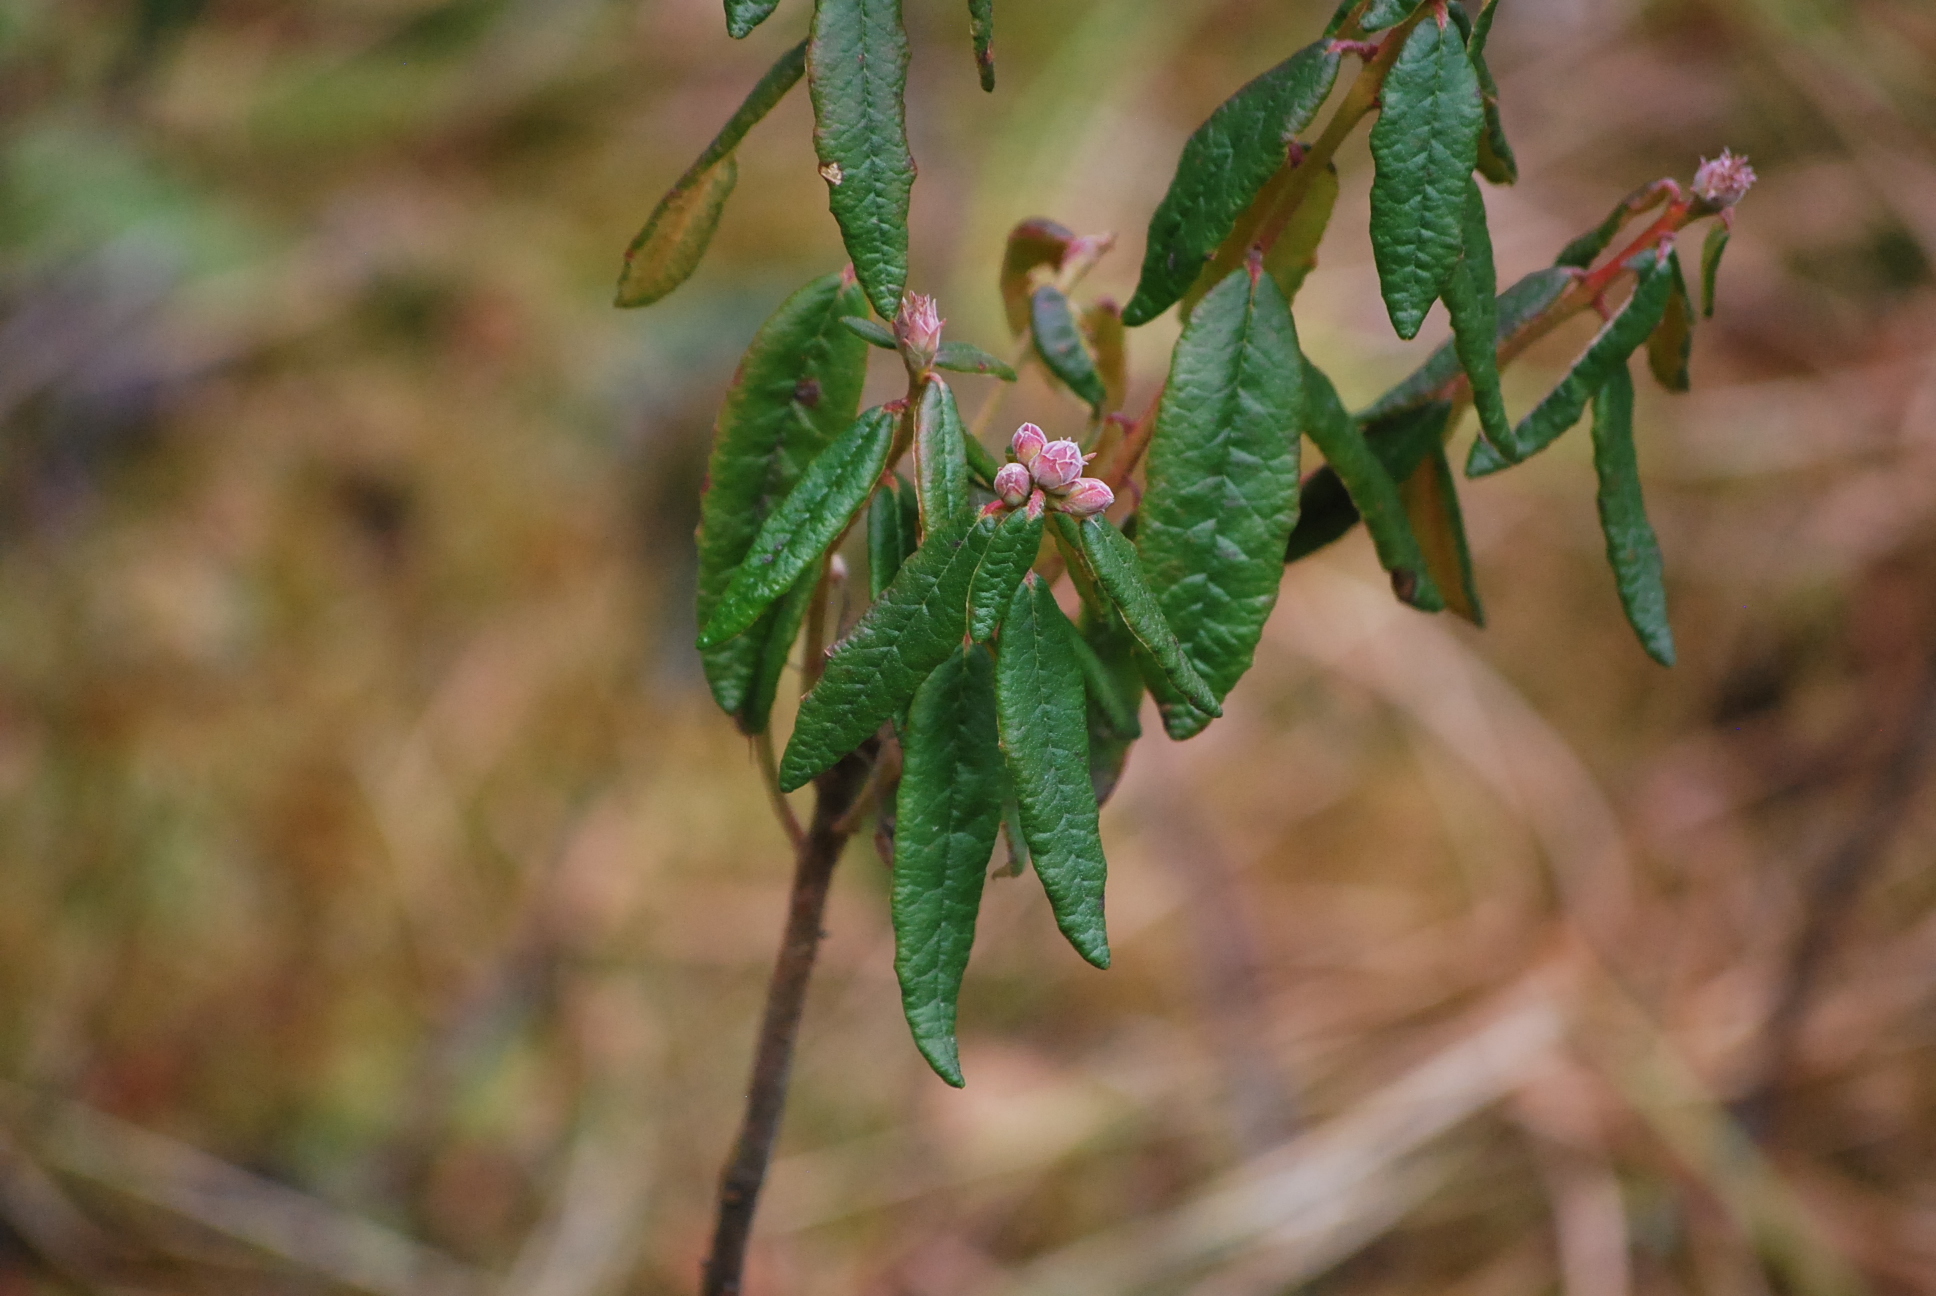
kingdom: Plantae
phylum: Tracheophyta
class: Magnoliopsida
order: Ericales
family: Ericaceae
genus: Rhododendron
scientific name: Rhododendron groenlandicum
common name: Bog labrador tea
